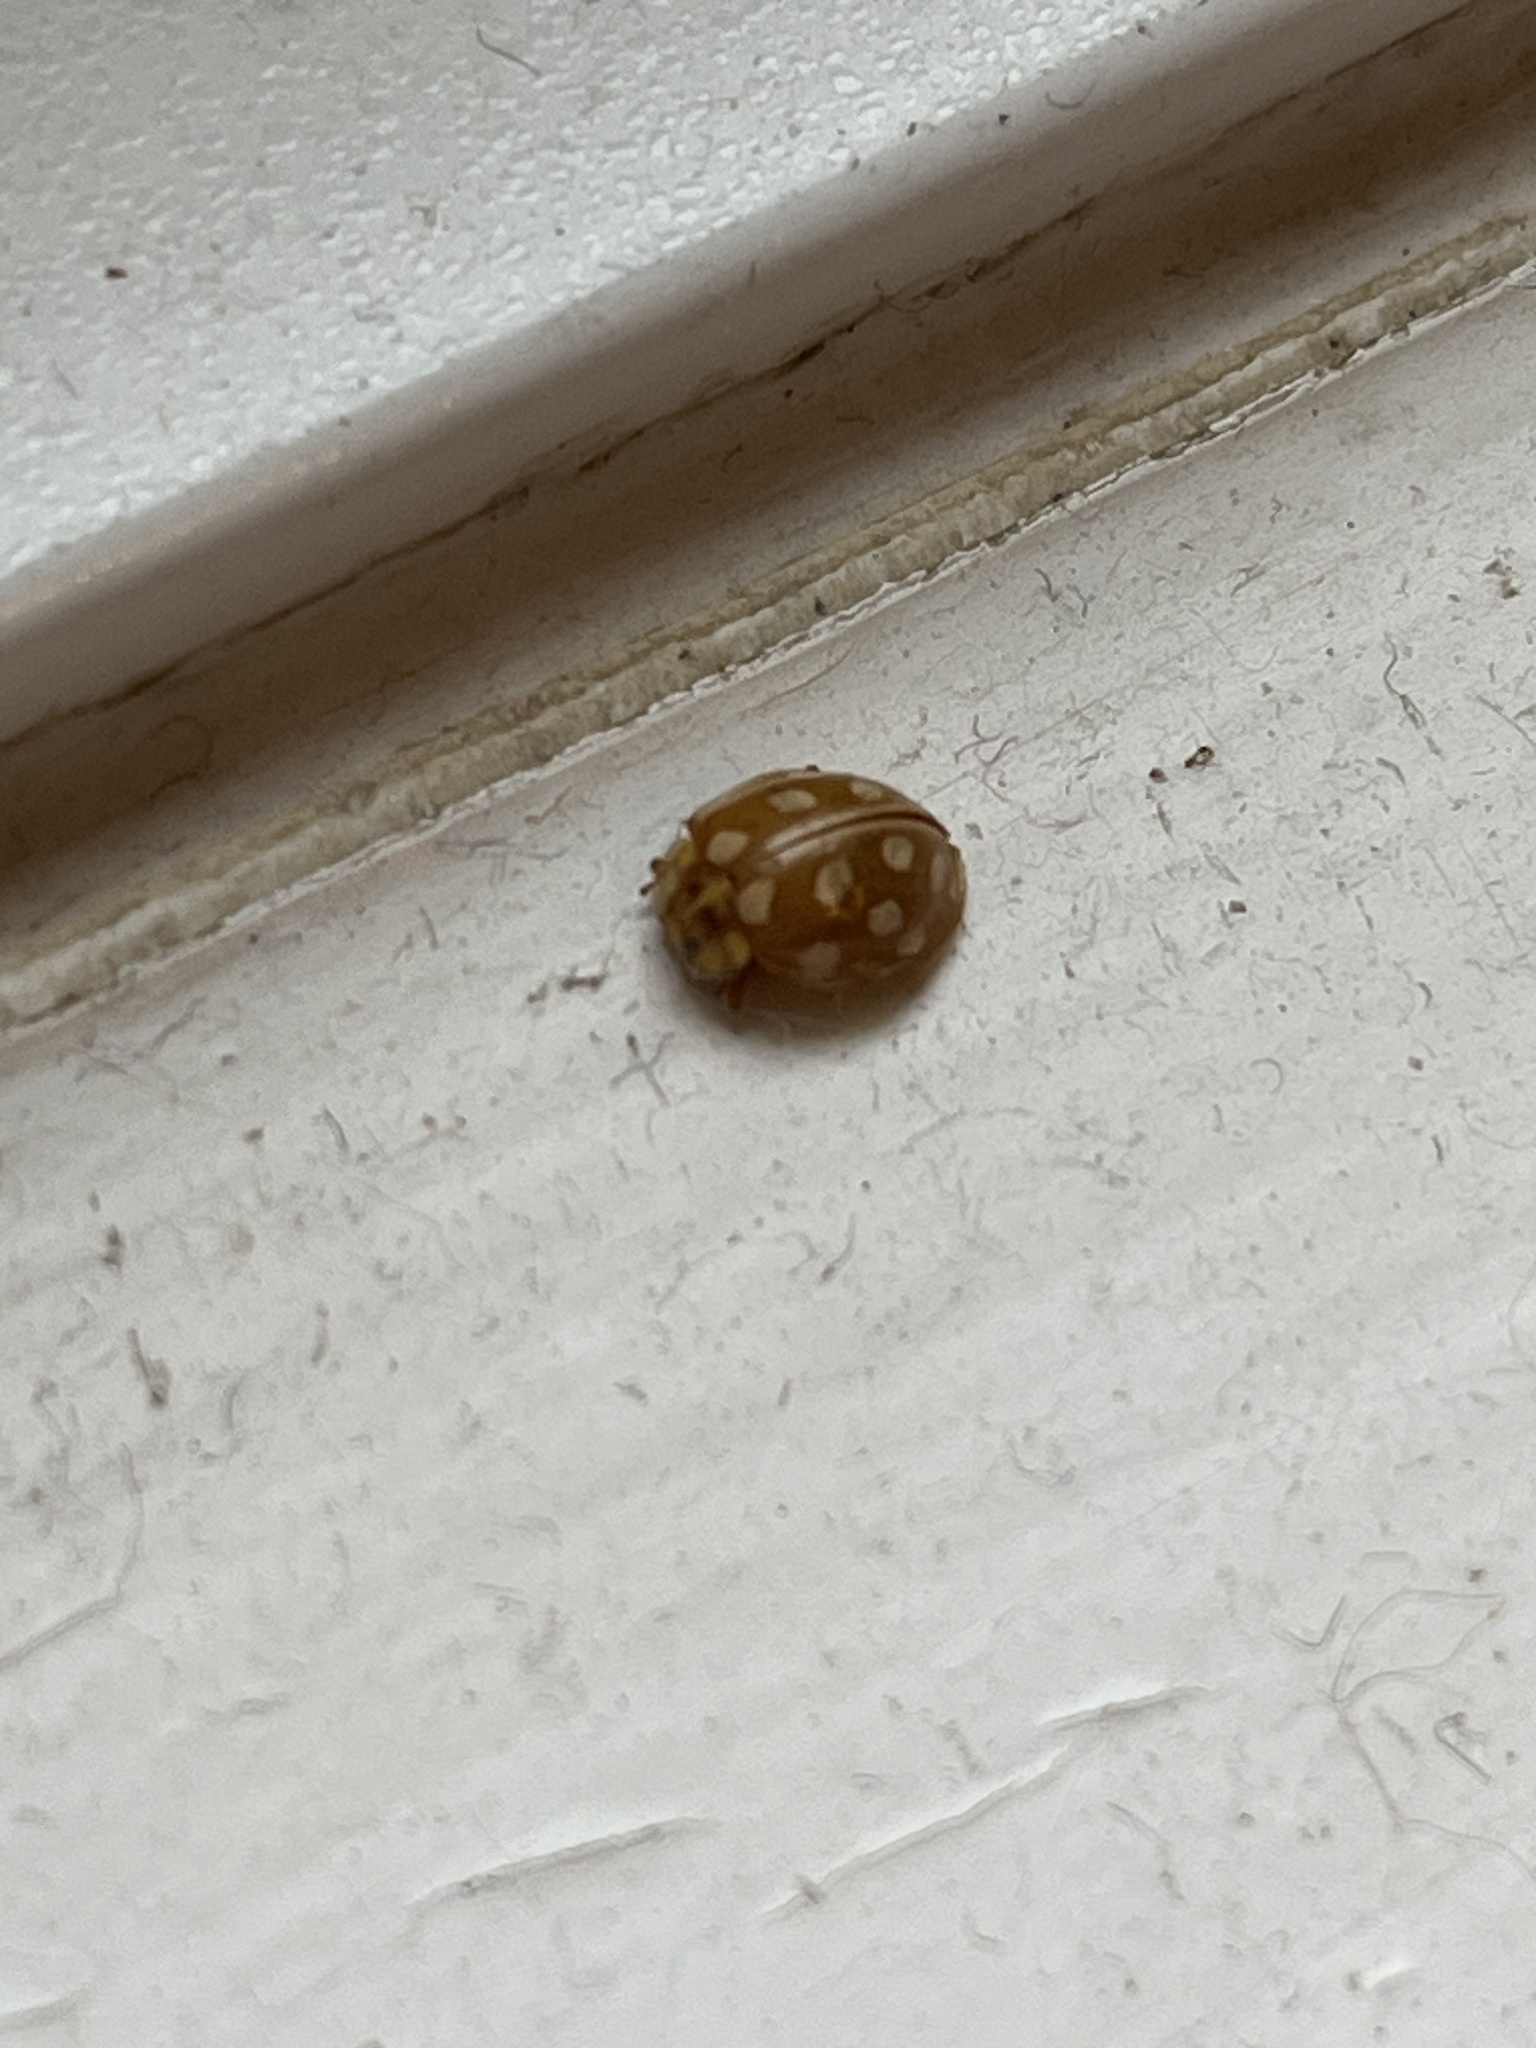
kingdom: Animalia
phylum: Arthropoda
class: Insecta
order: Coleoptera
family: Coccinellidae
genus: Halyzia
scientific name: Halyzia sedecimguttata
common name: Orange ladybird
